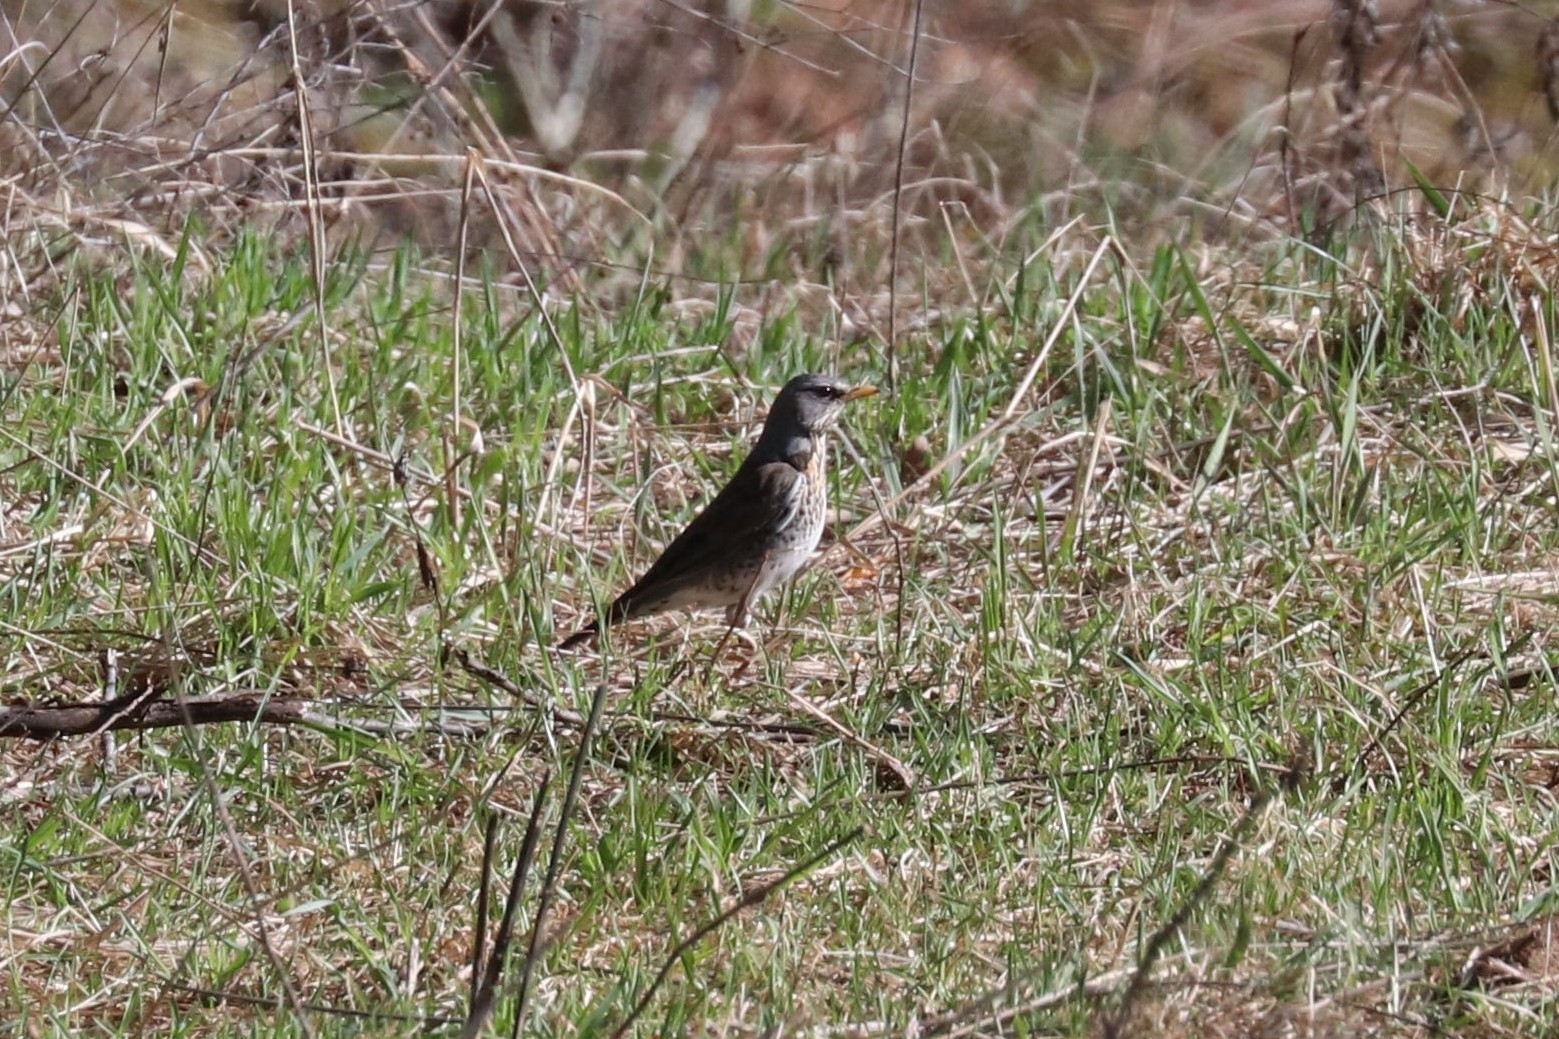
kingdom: Animalia
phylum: Chordata
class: Aves
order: Passeriformes
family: Turdidae
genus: Turdus
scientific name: Turdus pilaris
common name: Fieldfare
